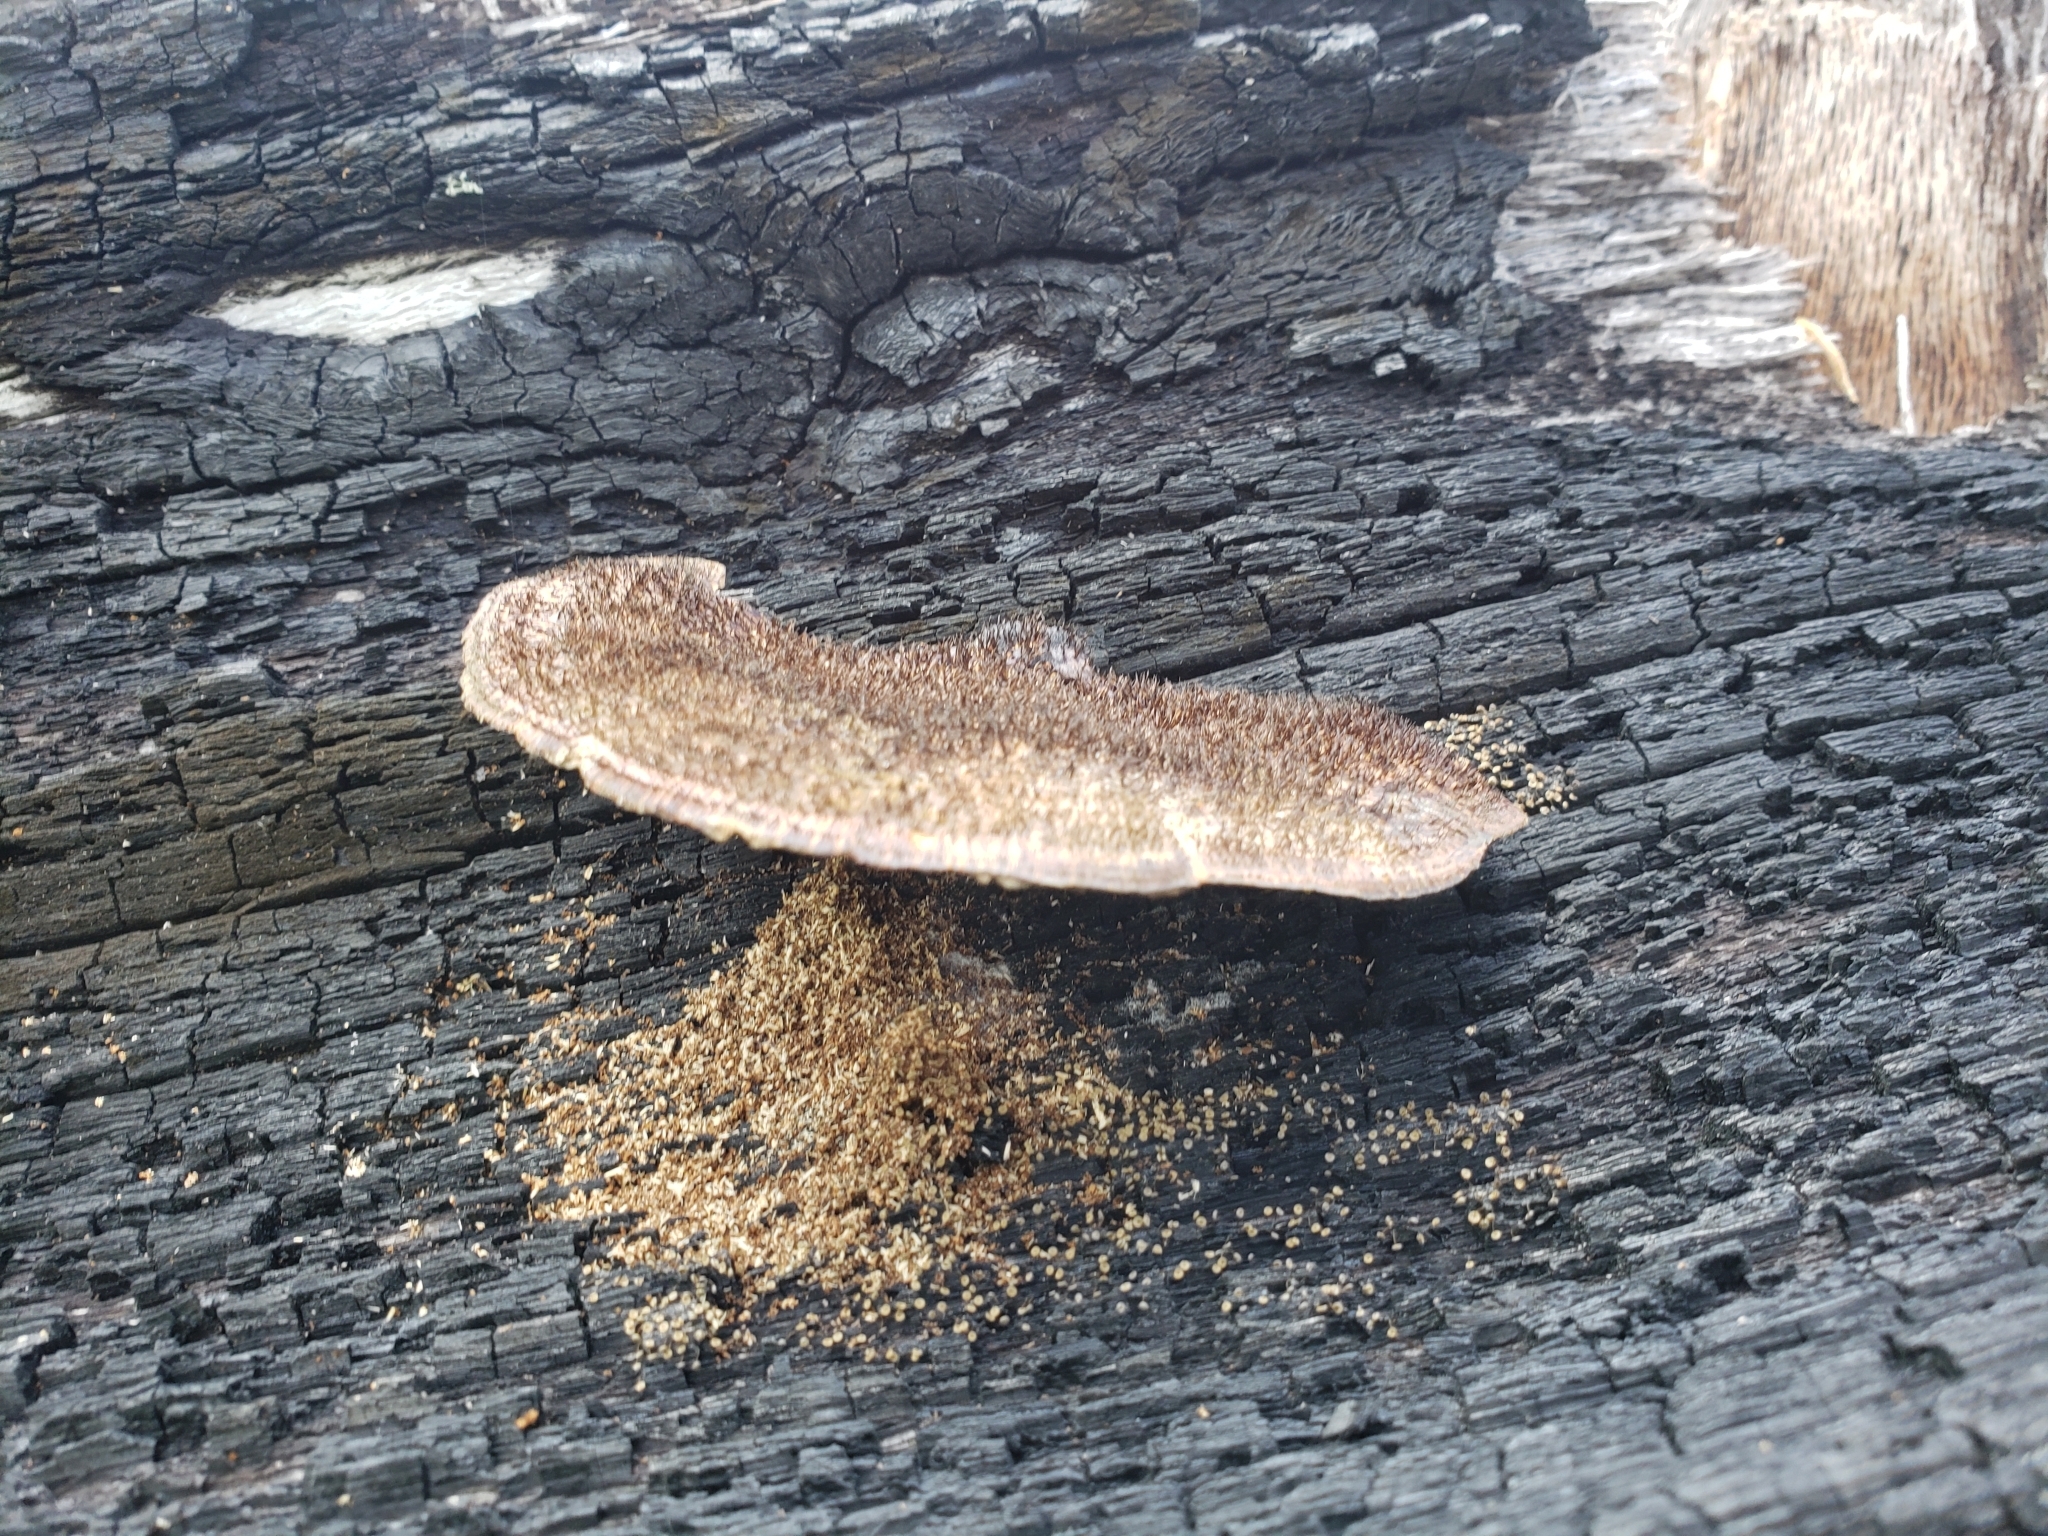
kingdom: Fungi
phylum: Basidiomycota
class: Agaricomycetes
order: Polyporales
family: Cerrenaceae
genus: Cerrena
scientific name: Cerrena hydnoides
